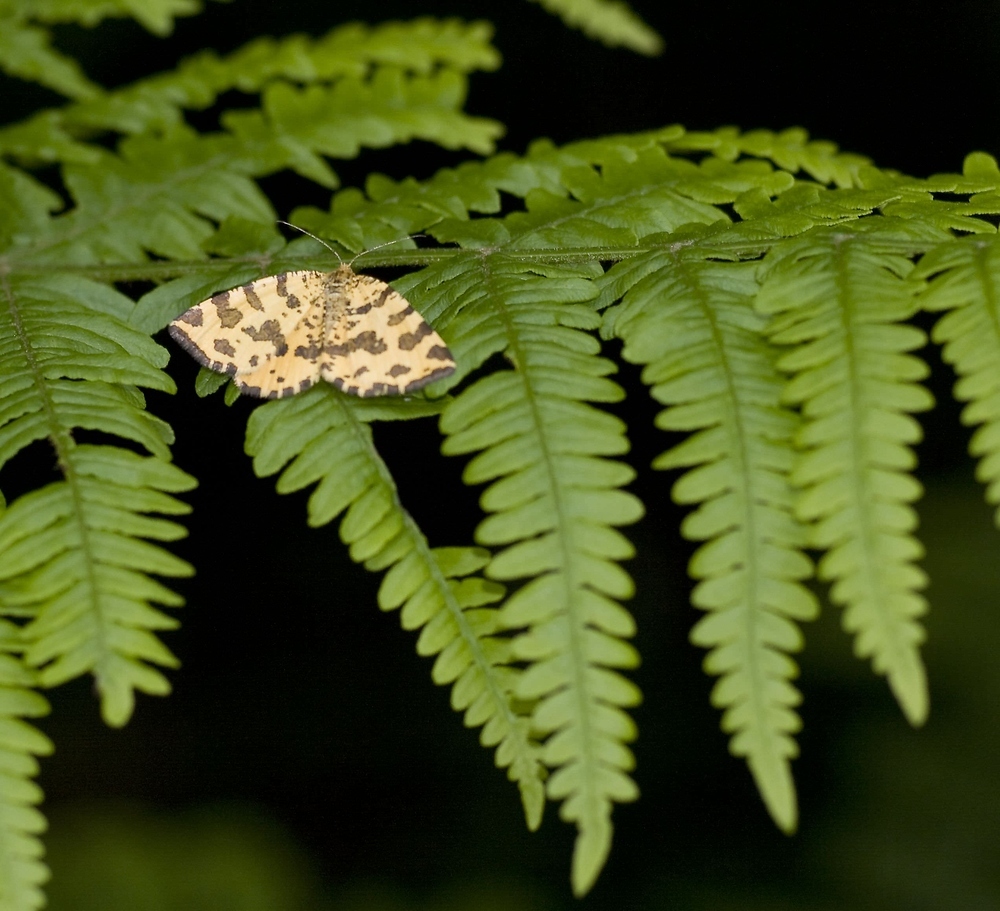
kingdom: Animalia
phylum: Arthropoda
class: Insecta
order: Lepidoptera
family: Geometridae
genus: Pseudopanthera
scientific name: Pseudopanthera macularia
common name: Speckled yellow
